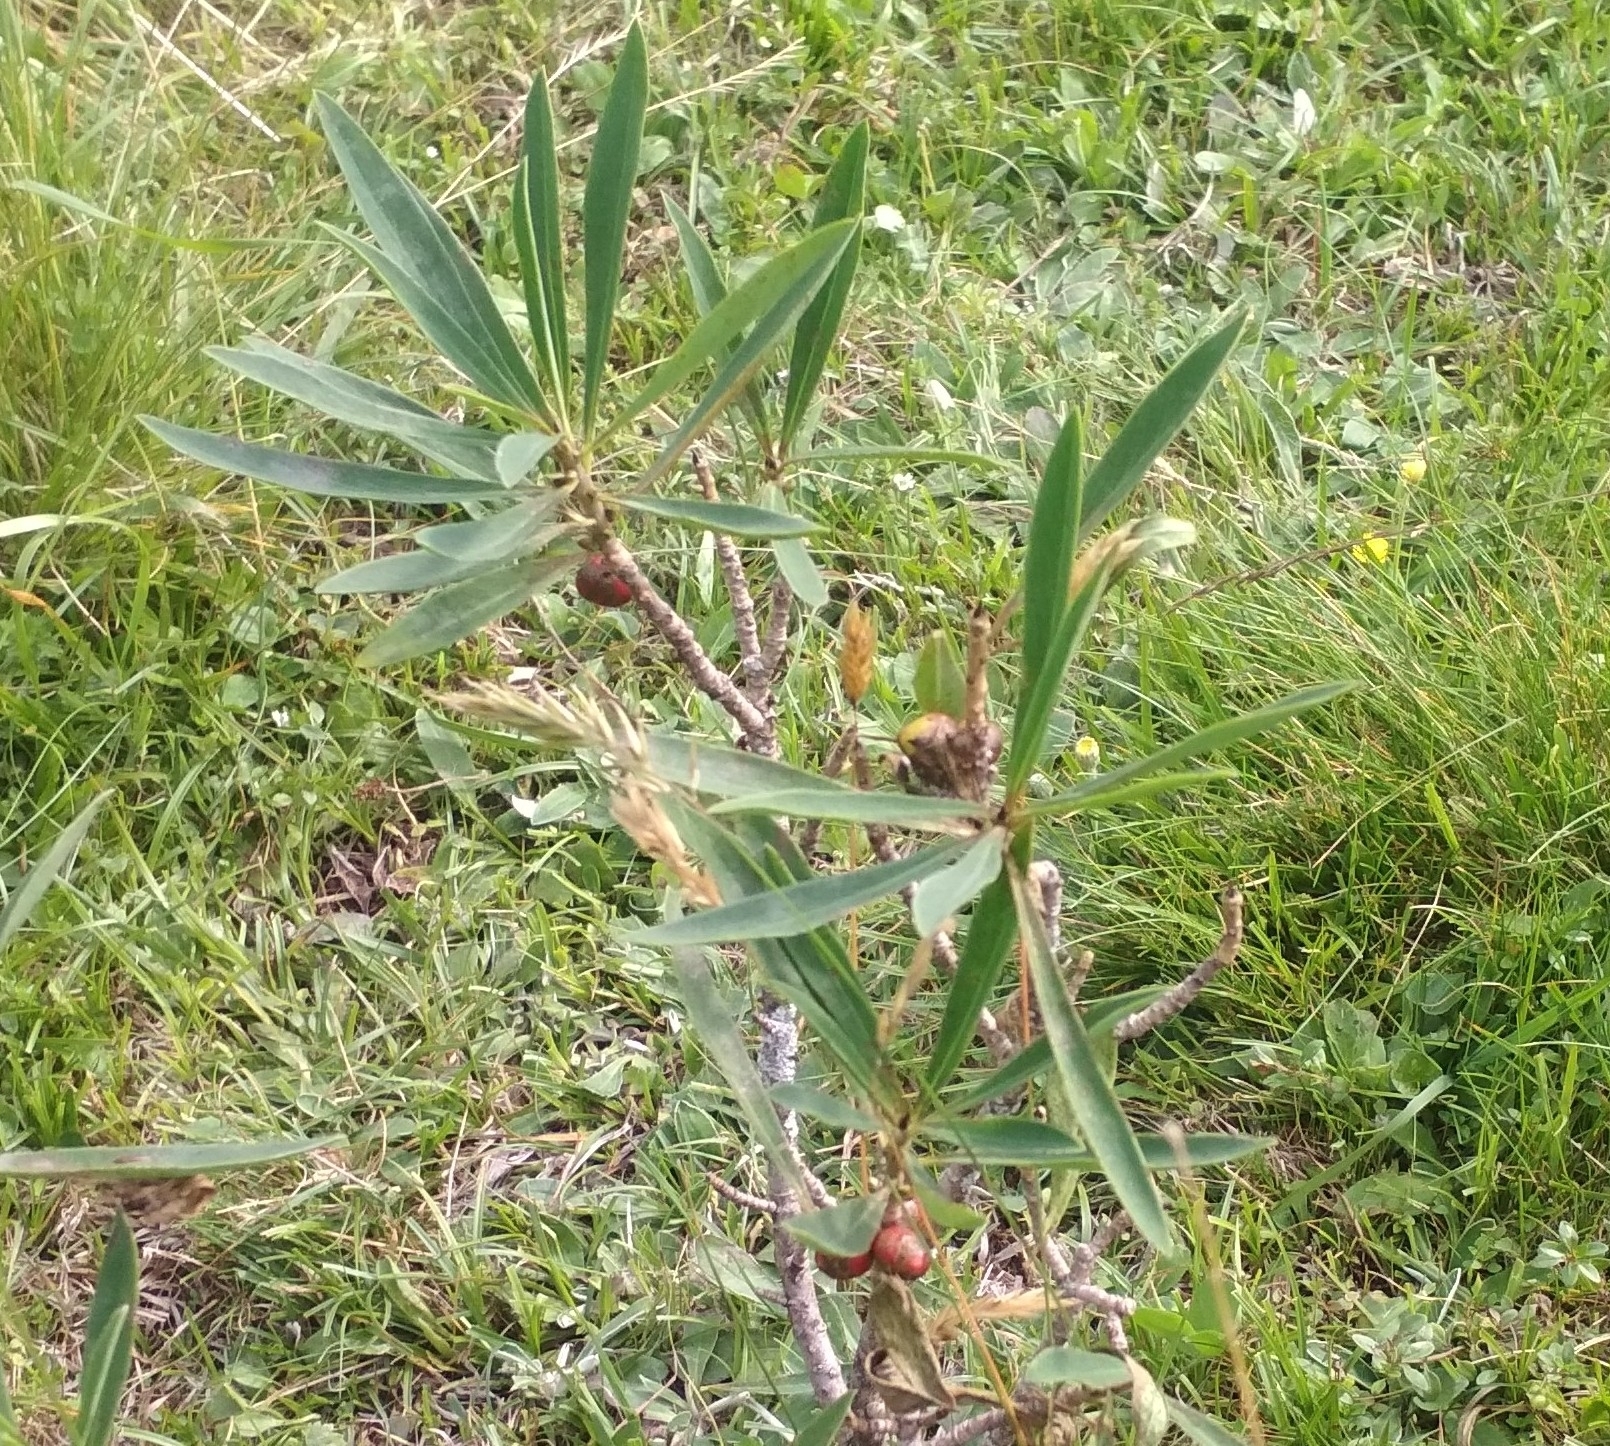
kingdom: Plantae
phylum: Tracheophyta
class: Magnoliopsida
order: Malvales
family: Thymelaeaceae
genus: Daphne
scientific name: Daphne mezereum
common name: Mezereon
